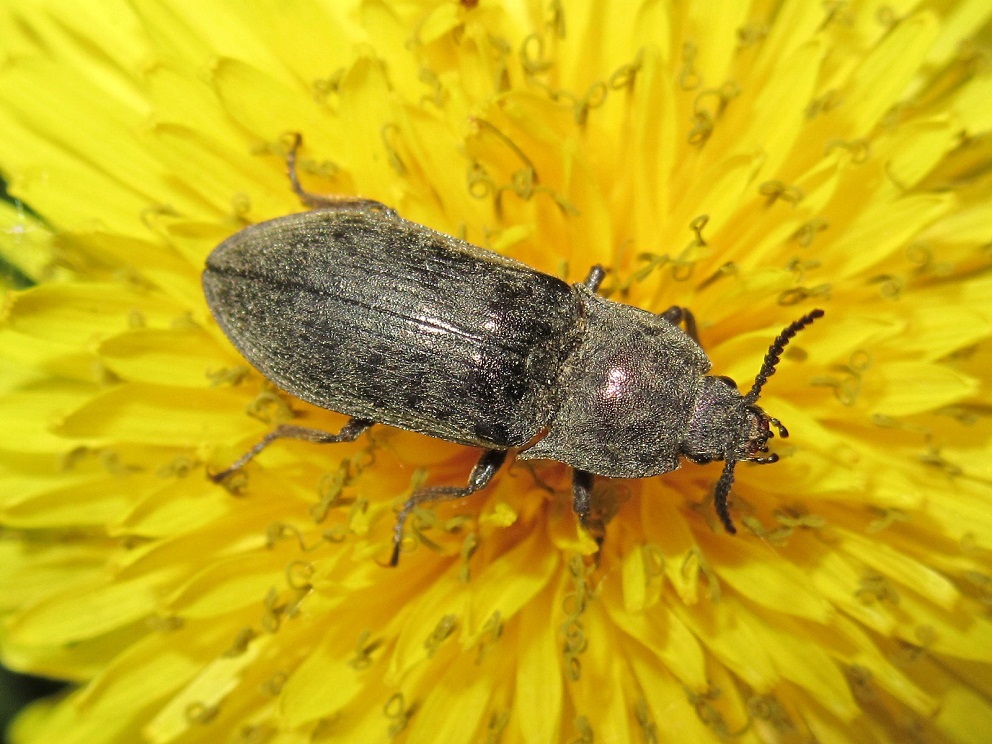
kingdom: Animalia
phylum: Arthropoda
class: Insecta
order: Coleoptera
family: Elateridae
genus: Selatosomus
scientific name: Selatosomus latus
